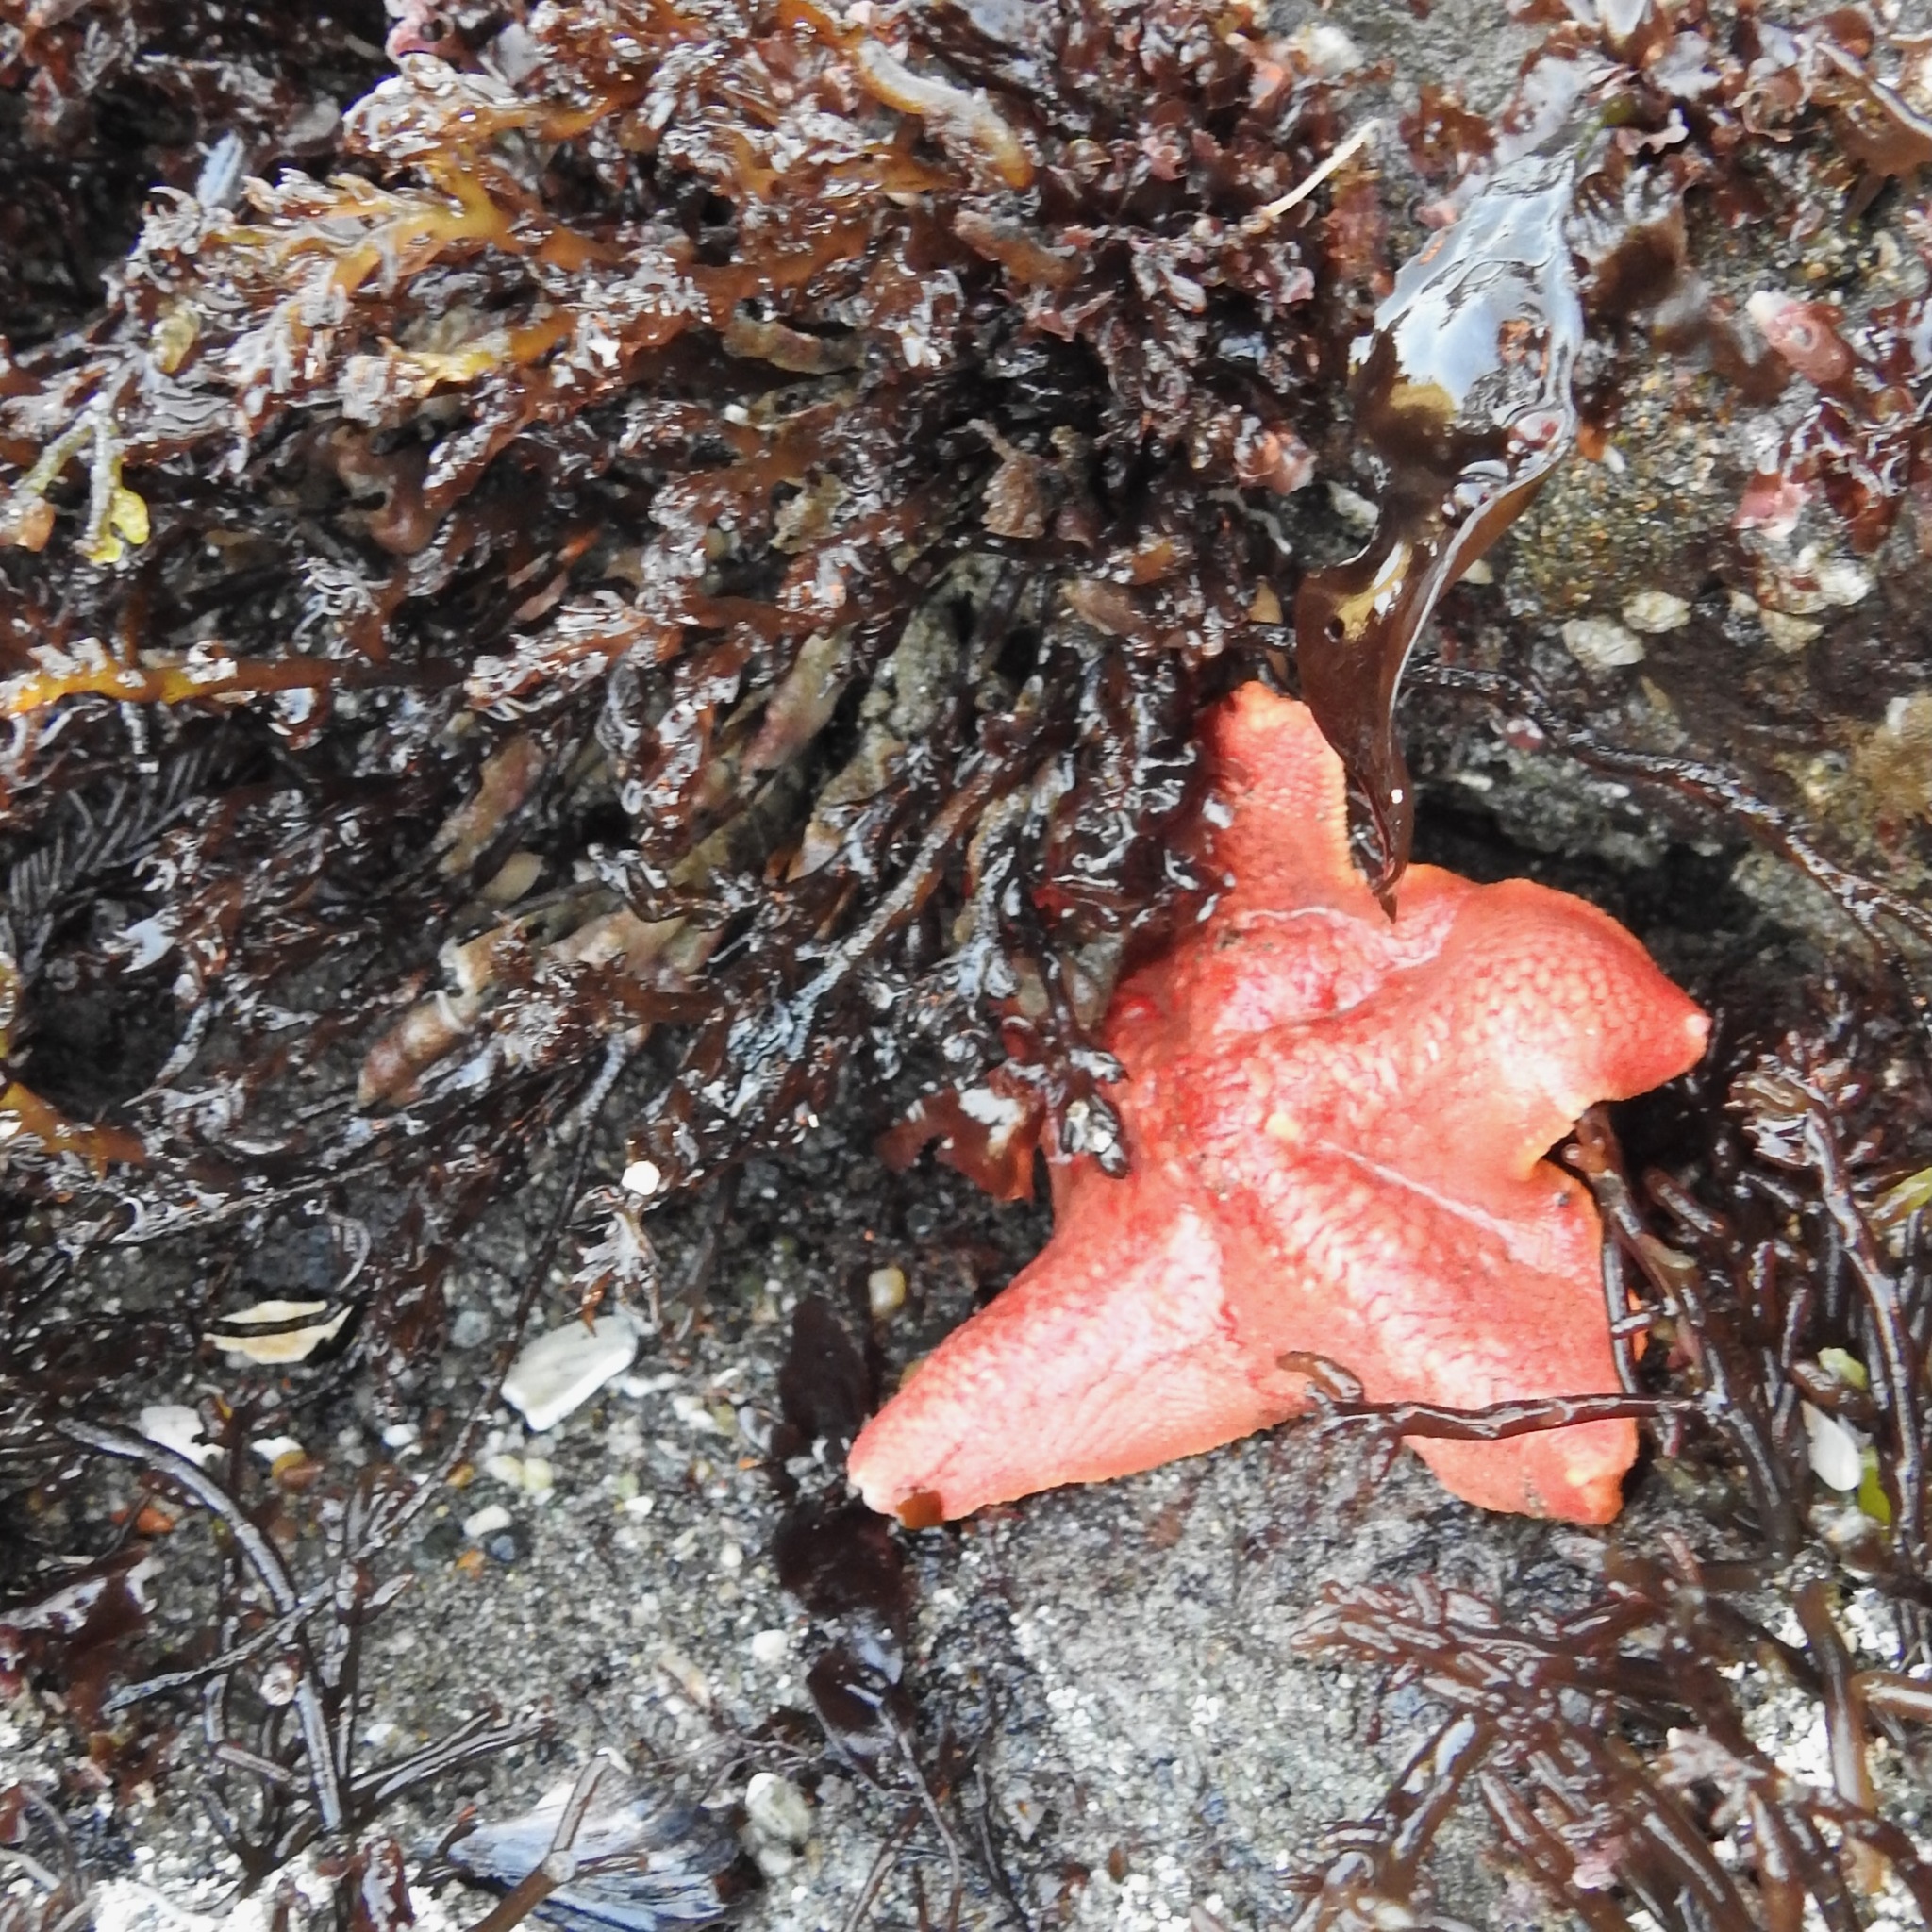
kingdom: Animalia
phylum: Echinodermata
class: Asteroidea
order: Valvatida
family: Asterinidae
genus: Patiria
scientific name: Patiria miniata
